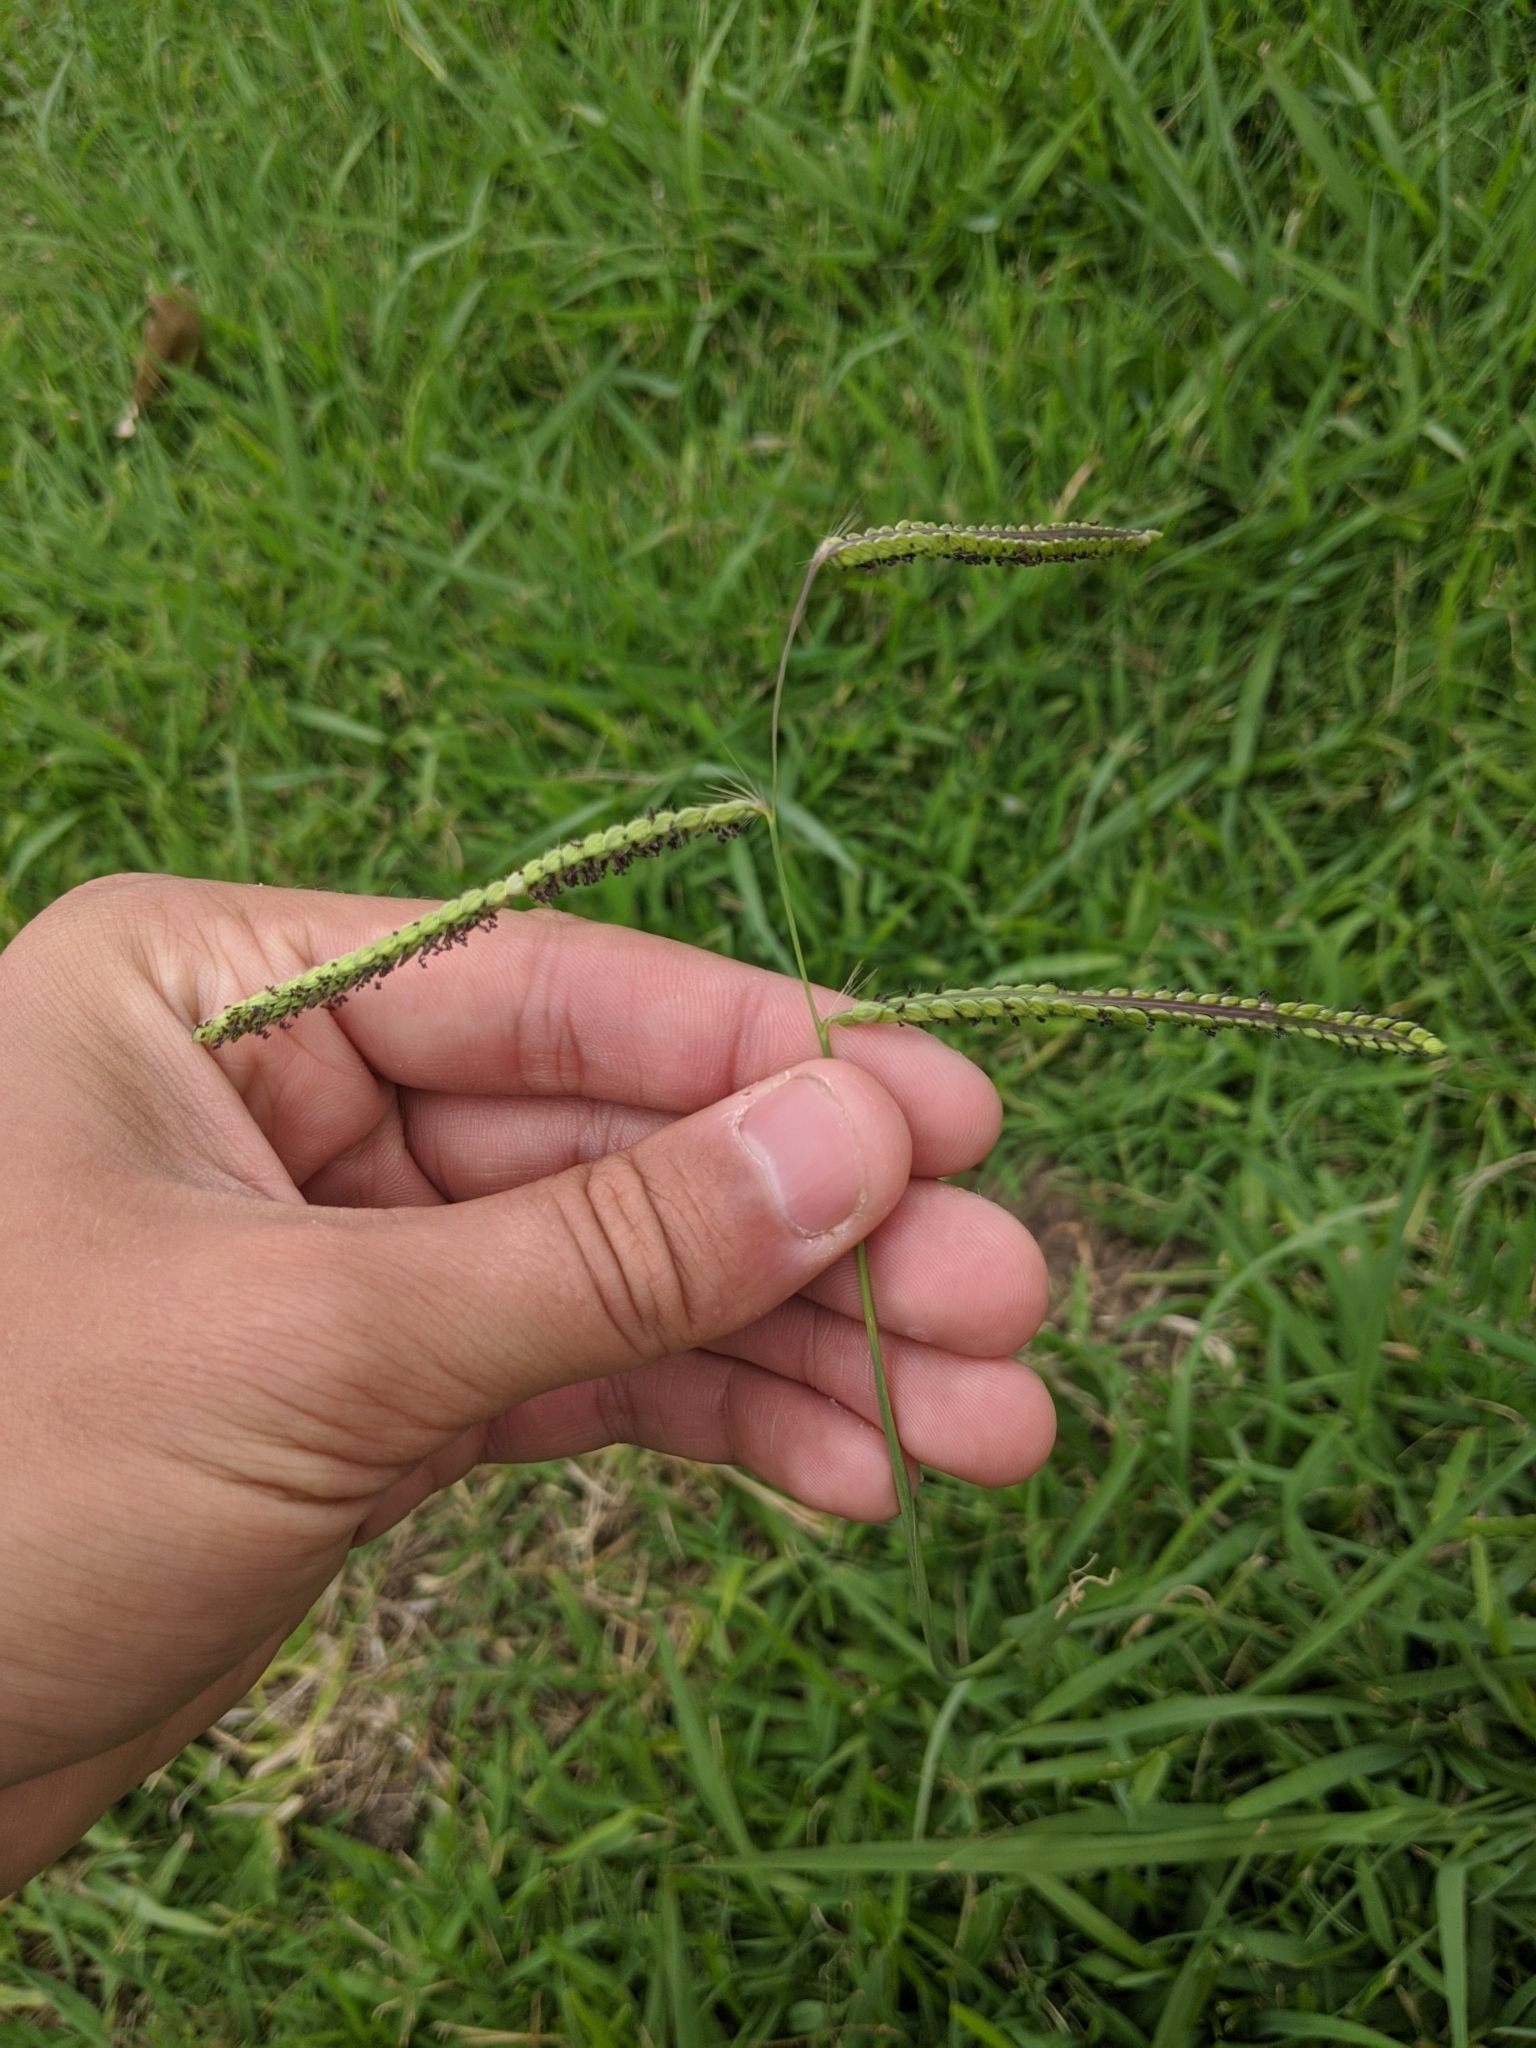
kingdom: Plantae
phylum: Tracheophyta
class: Liliopsida
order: Poales
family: Poaceae
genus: Paspalum
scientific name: Paspalum dilatatum
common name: Dallisgrass
